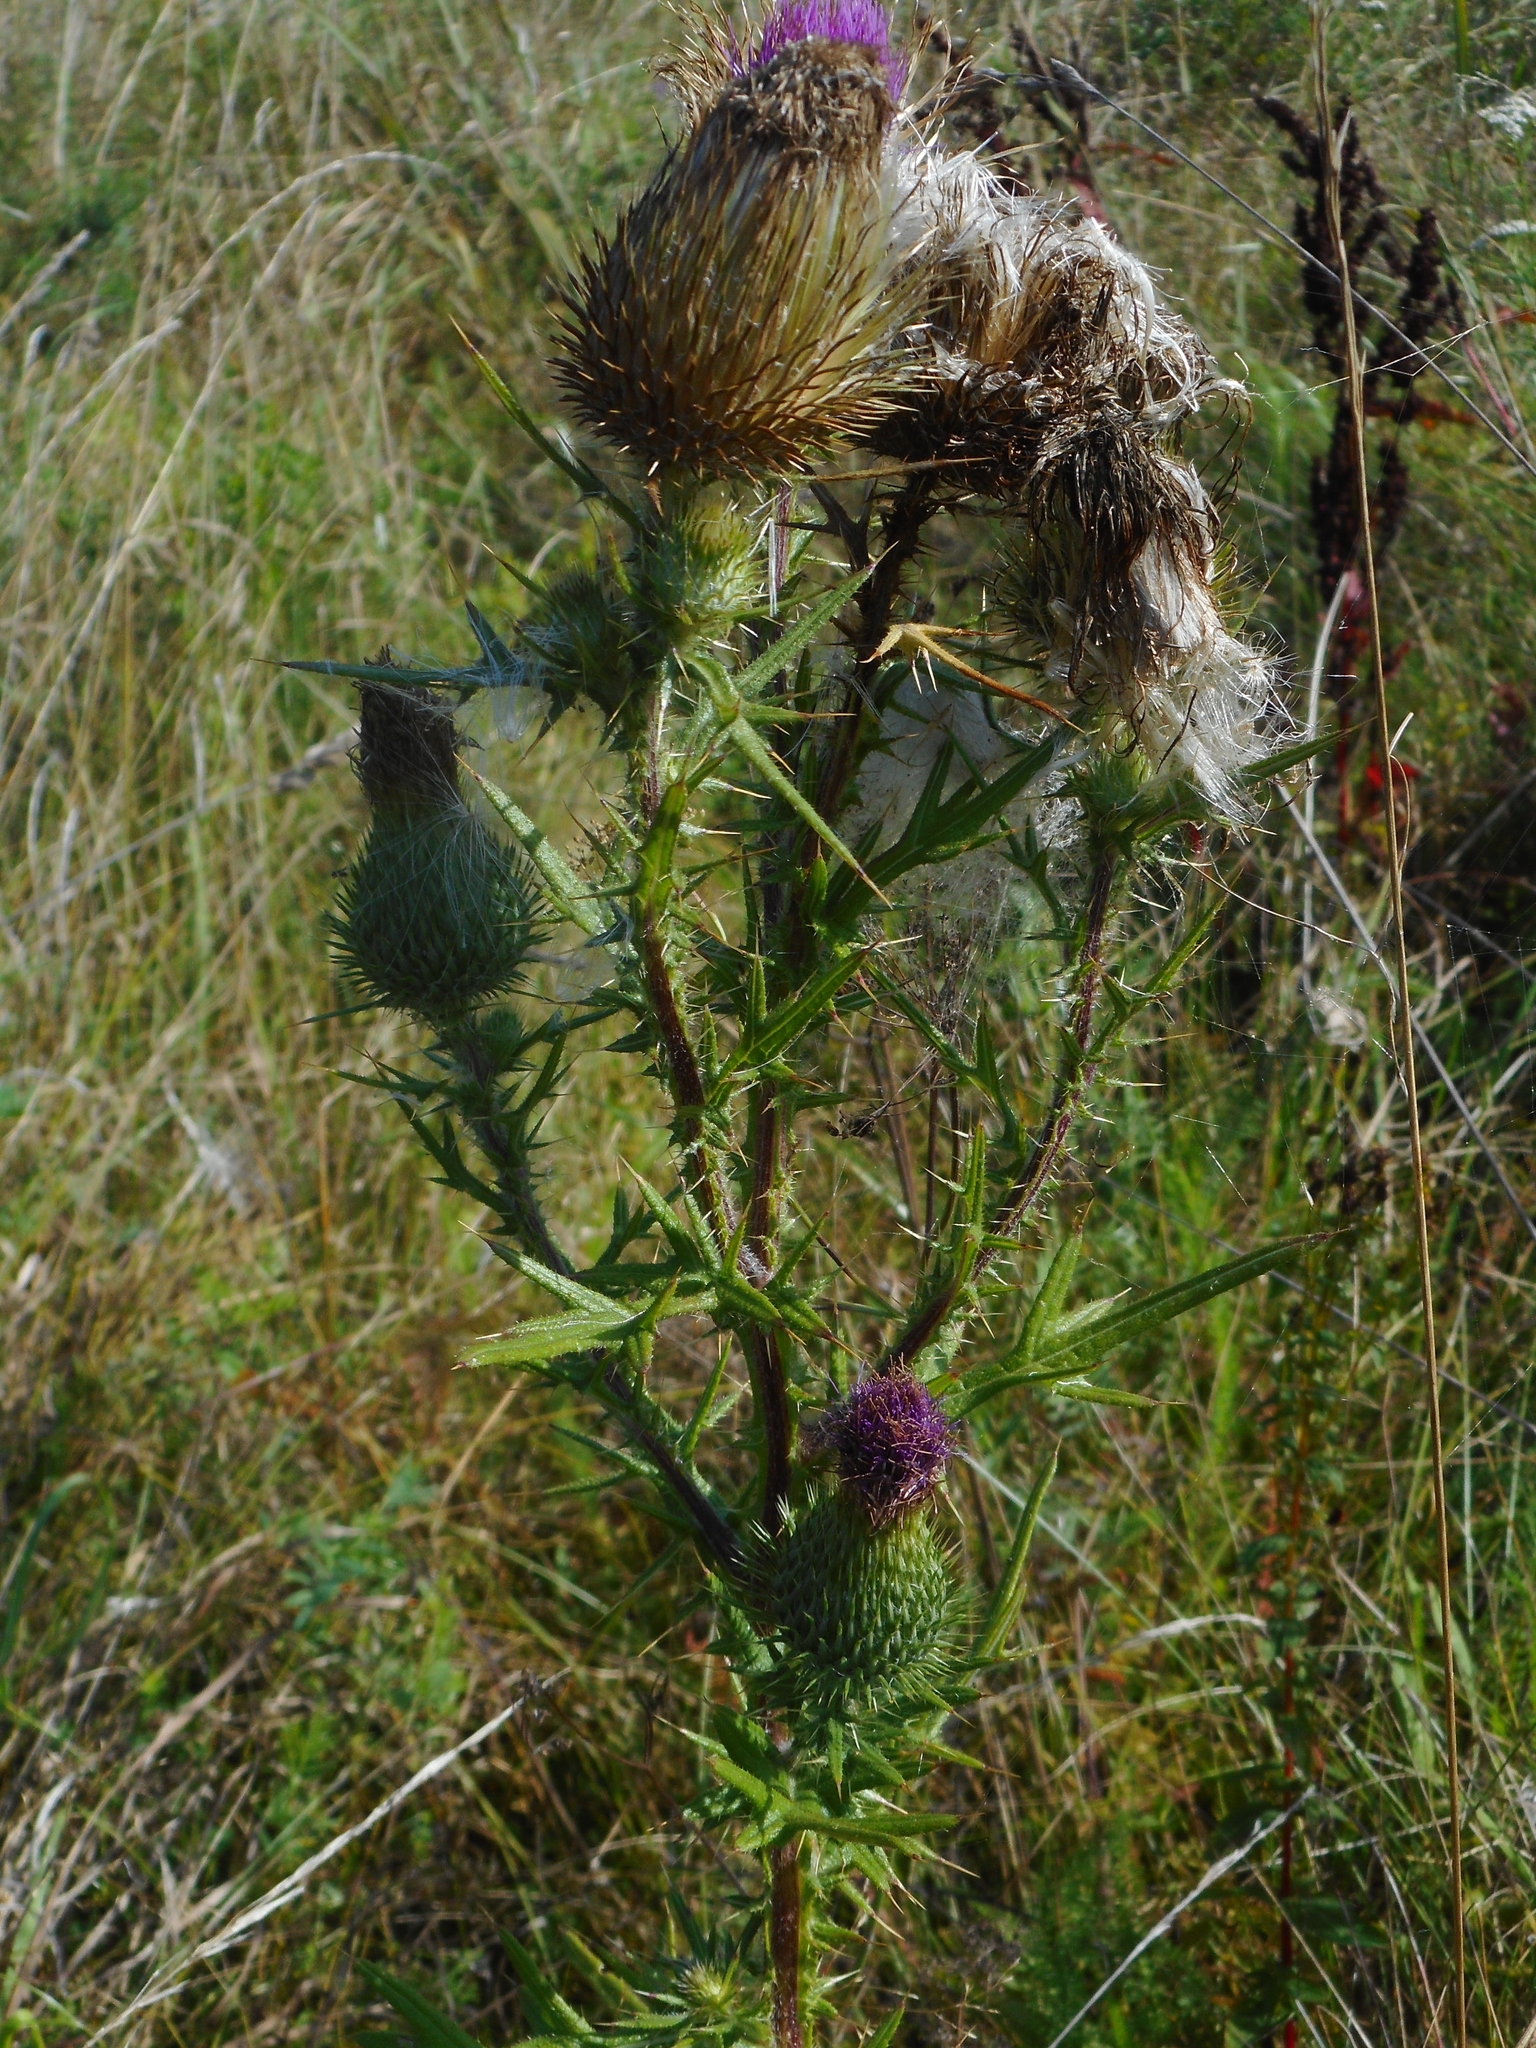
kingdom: Plantae
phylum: Tracheophyta
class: Magnoliopsida
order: Asterales
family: Asteraceae
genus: Cirsium
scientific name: Cirsium vulgare
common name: Bull thistle
